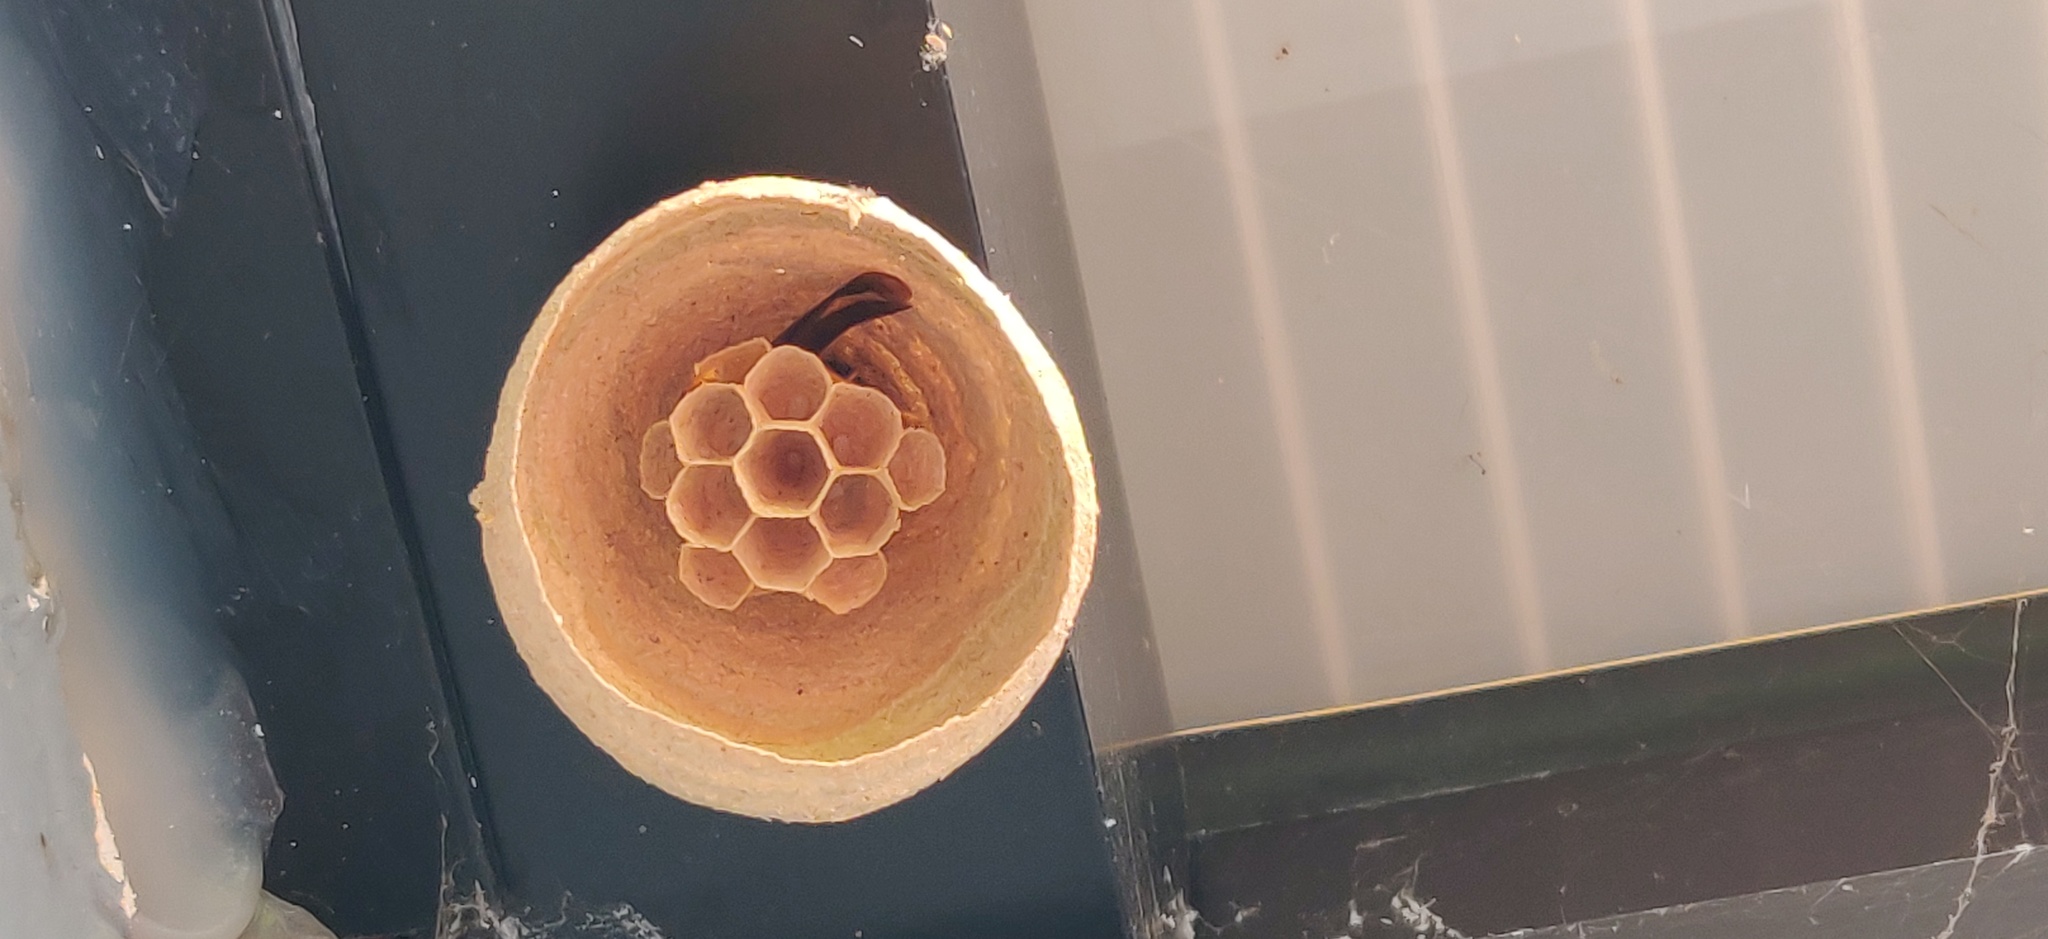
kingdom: Animalia
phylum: Arthropoda
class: Insecta
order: Hymenoptera
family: Vespidae
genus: Vespa
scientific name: Vespa velutina
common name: Asian hornet
